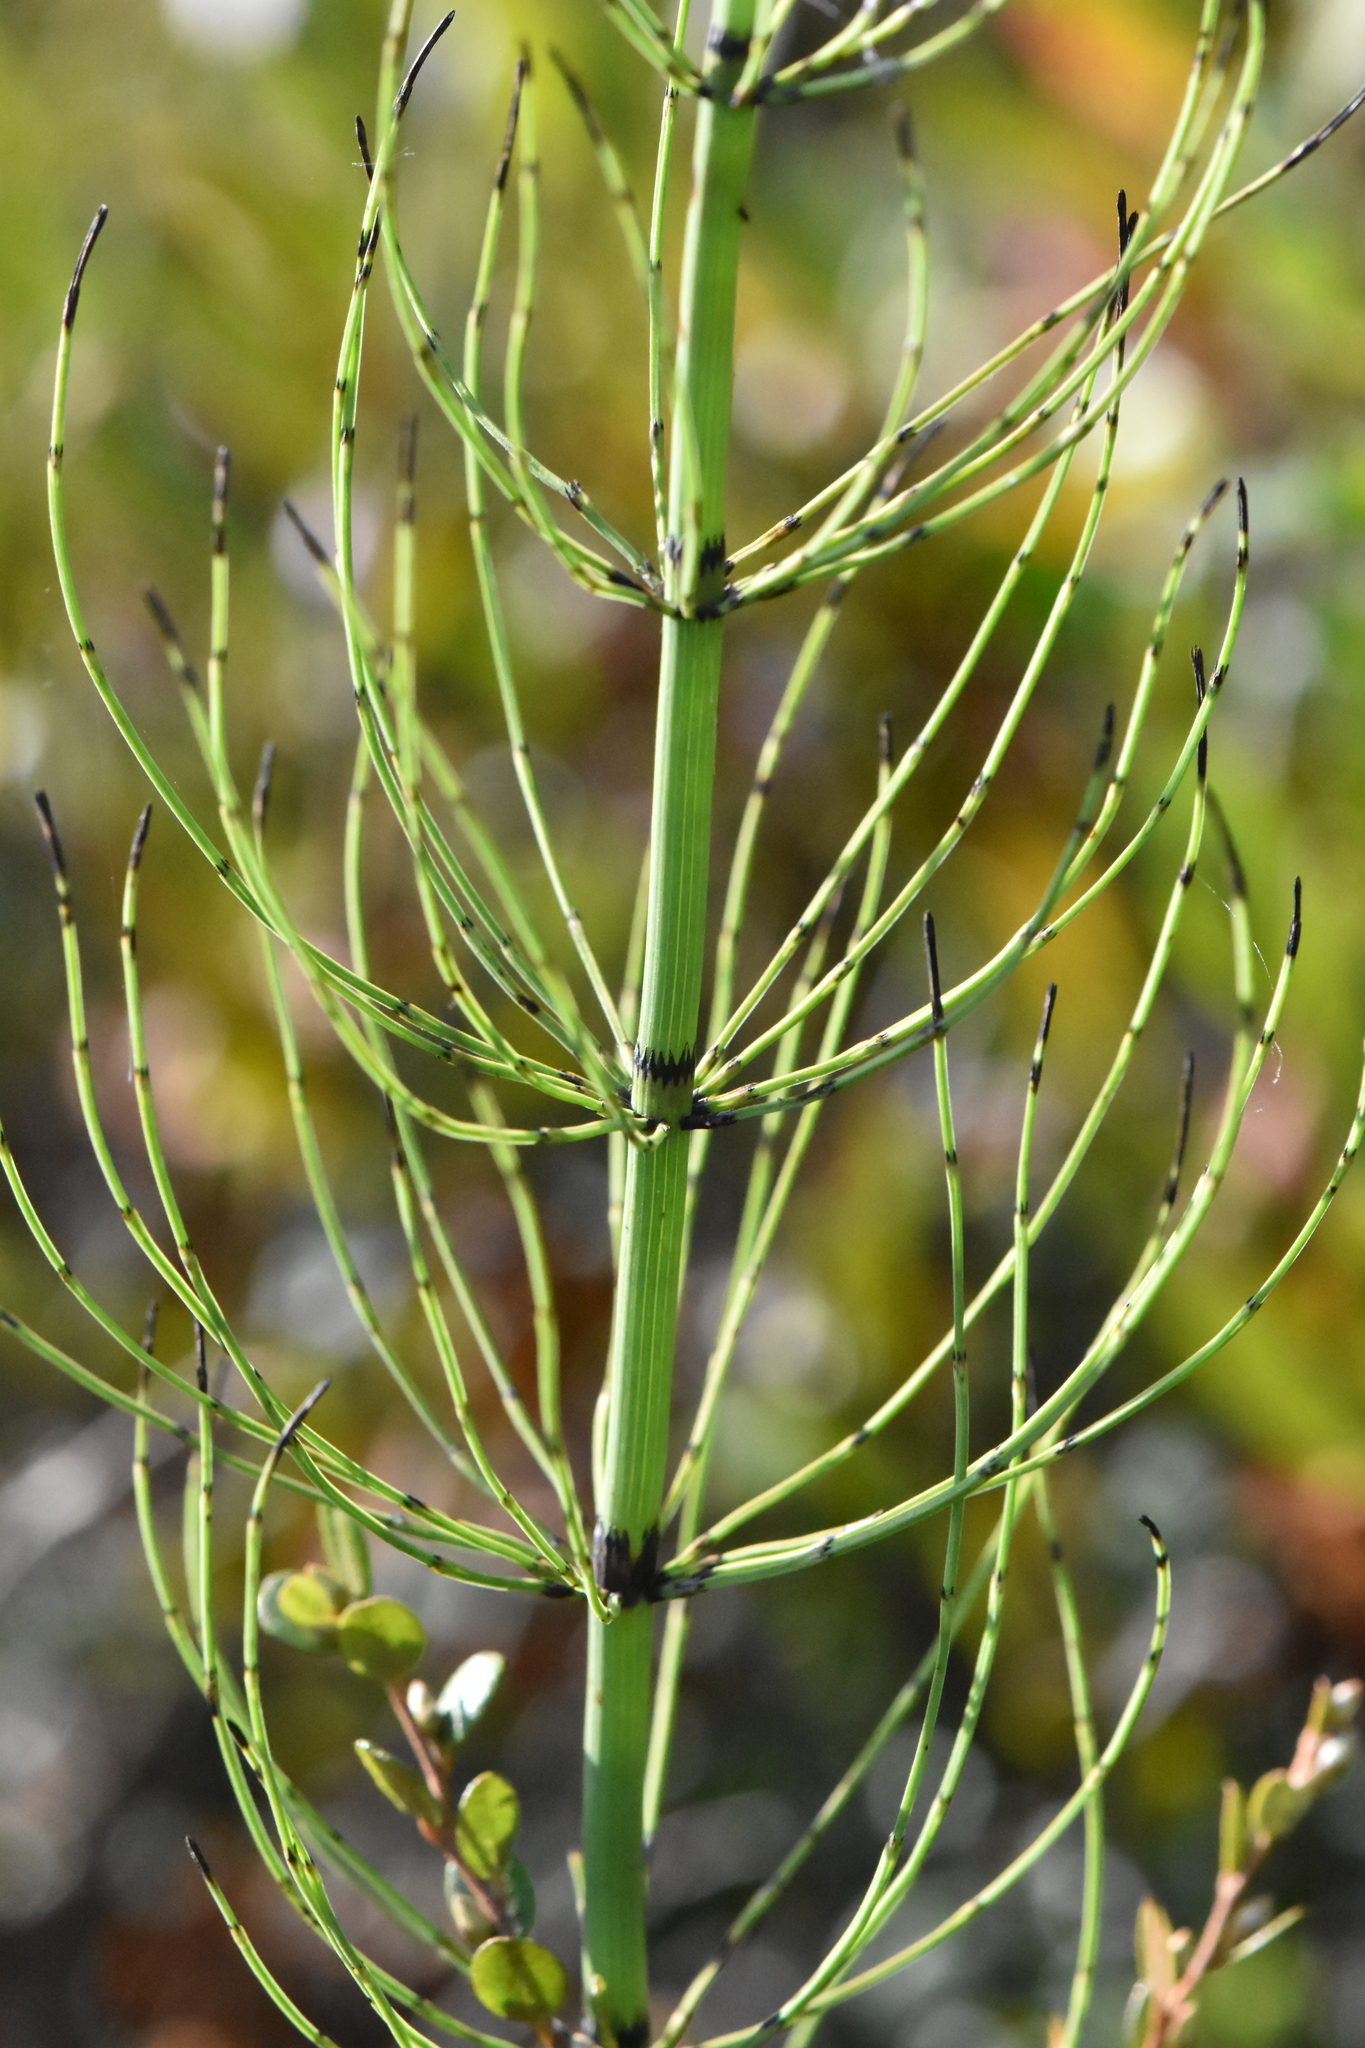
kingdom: Plantae
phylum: Tracheophyta
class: Polypodiopsida
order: Equisetales
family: Equisetaceae
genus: Equisetum
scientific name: Equisetum fluviatile
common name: Water horsetail
